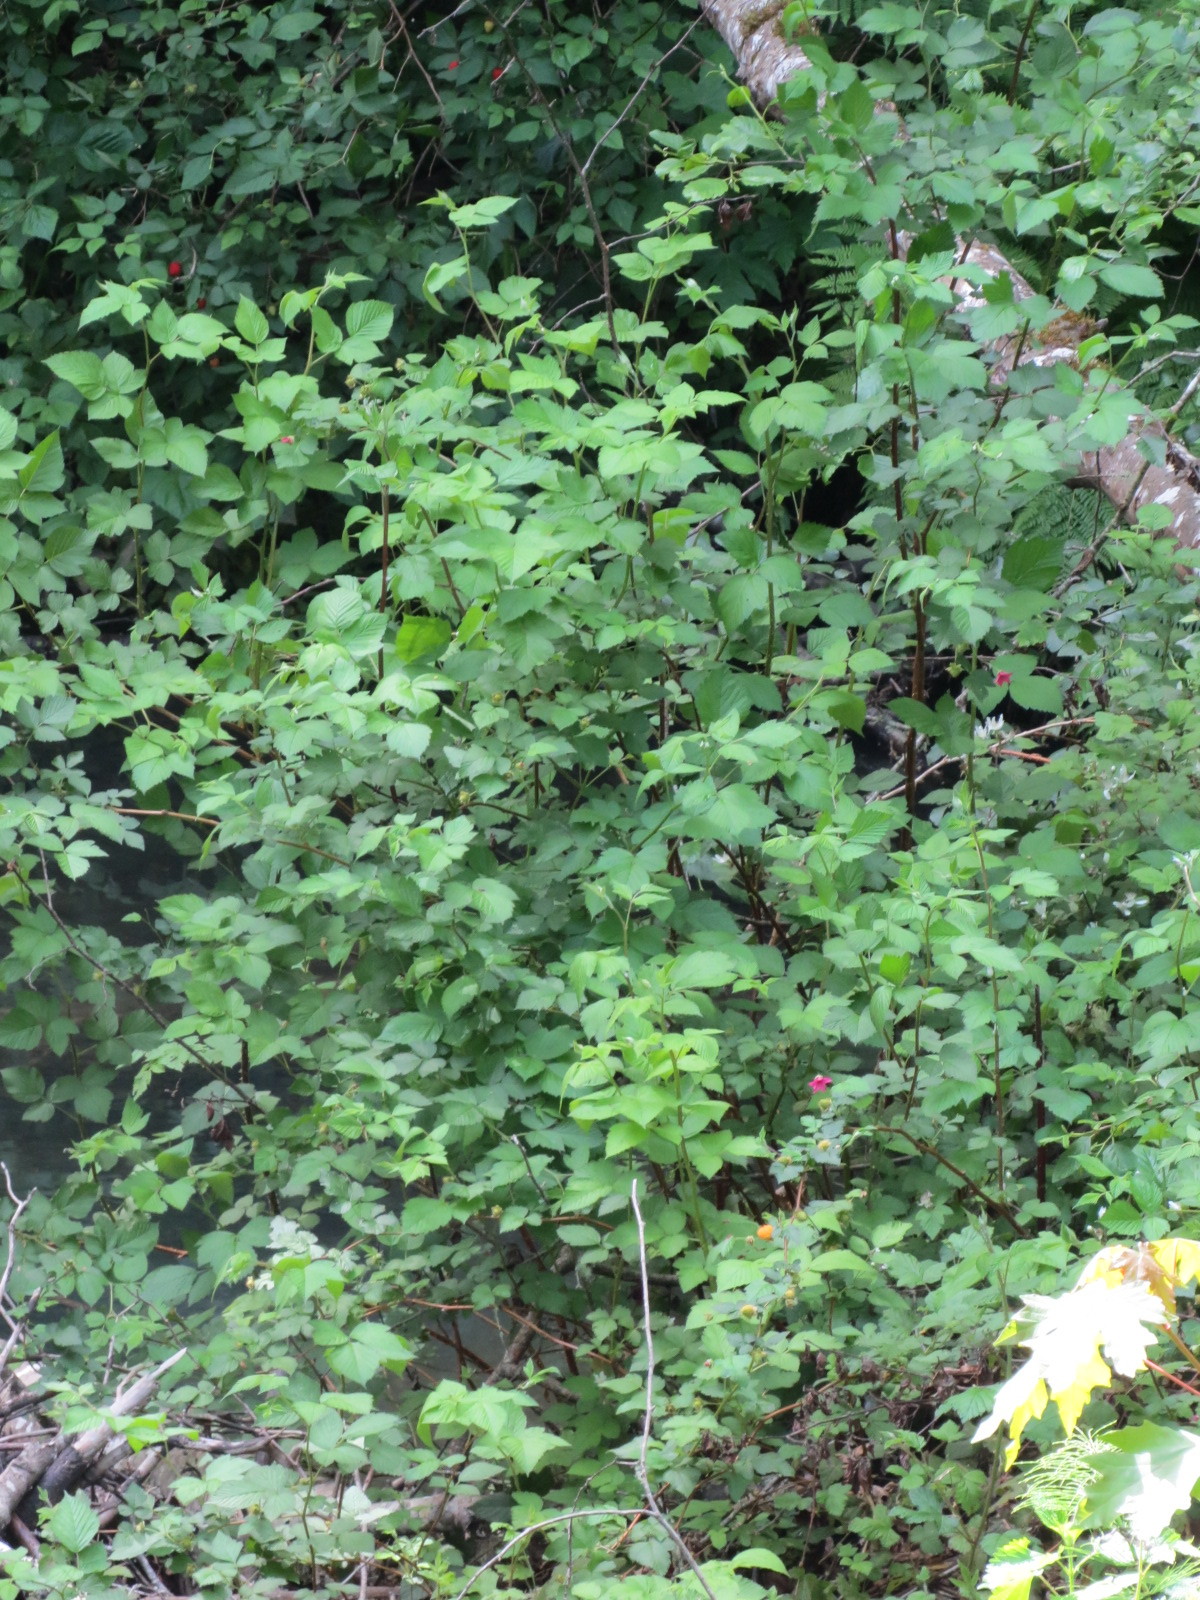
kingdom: Plantae
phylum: Tracheophyta
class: Magnoliopsida
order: Rosales
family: Rosaceae
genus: Rubus
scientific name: Rubus spectabilis
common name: Salmonberry
